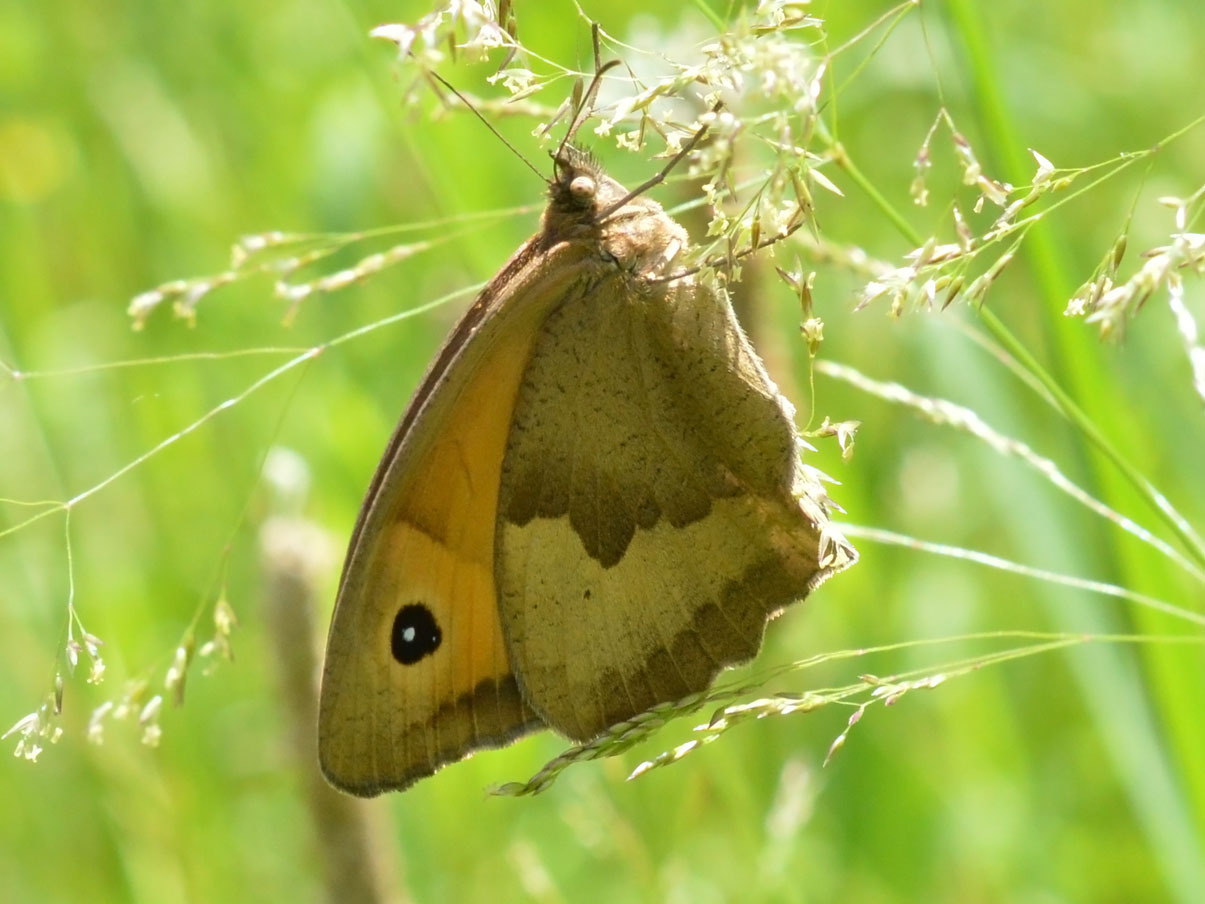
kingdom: Animalia
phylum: Arthropoda
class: Insecta
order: Lepidoptera
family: Nymphalidae
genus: Maniola
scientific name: Maniola jurtina
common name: Meadow brown
